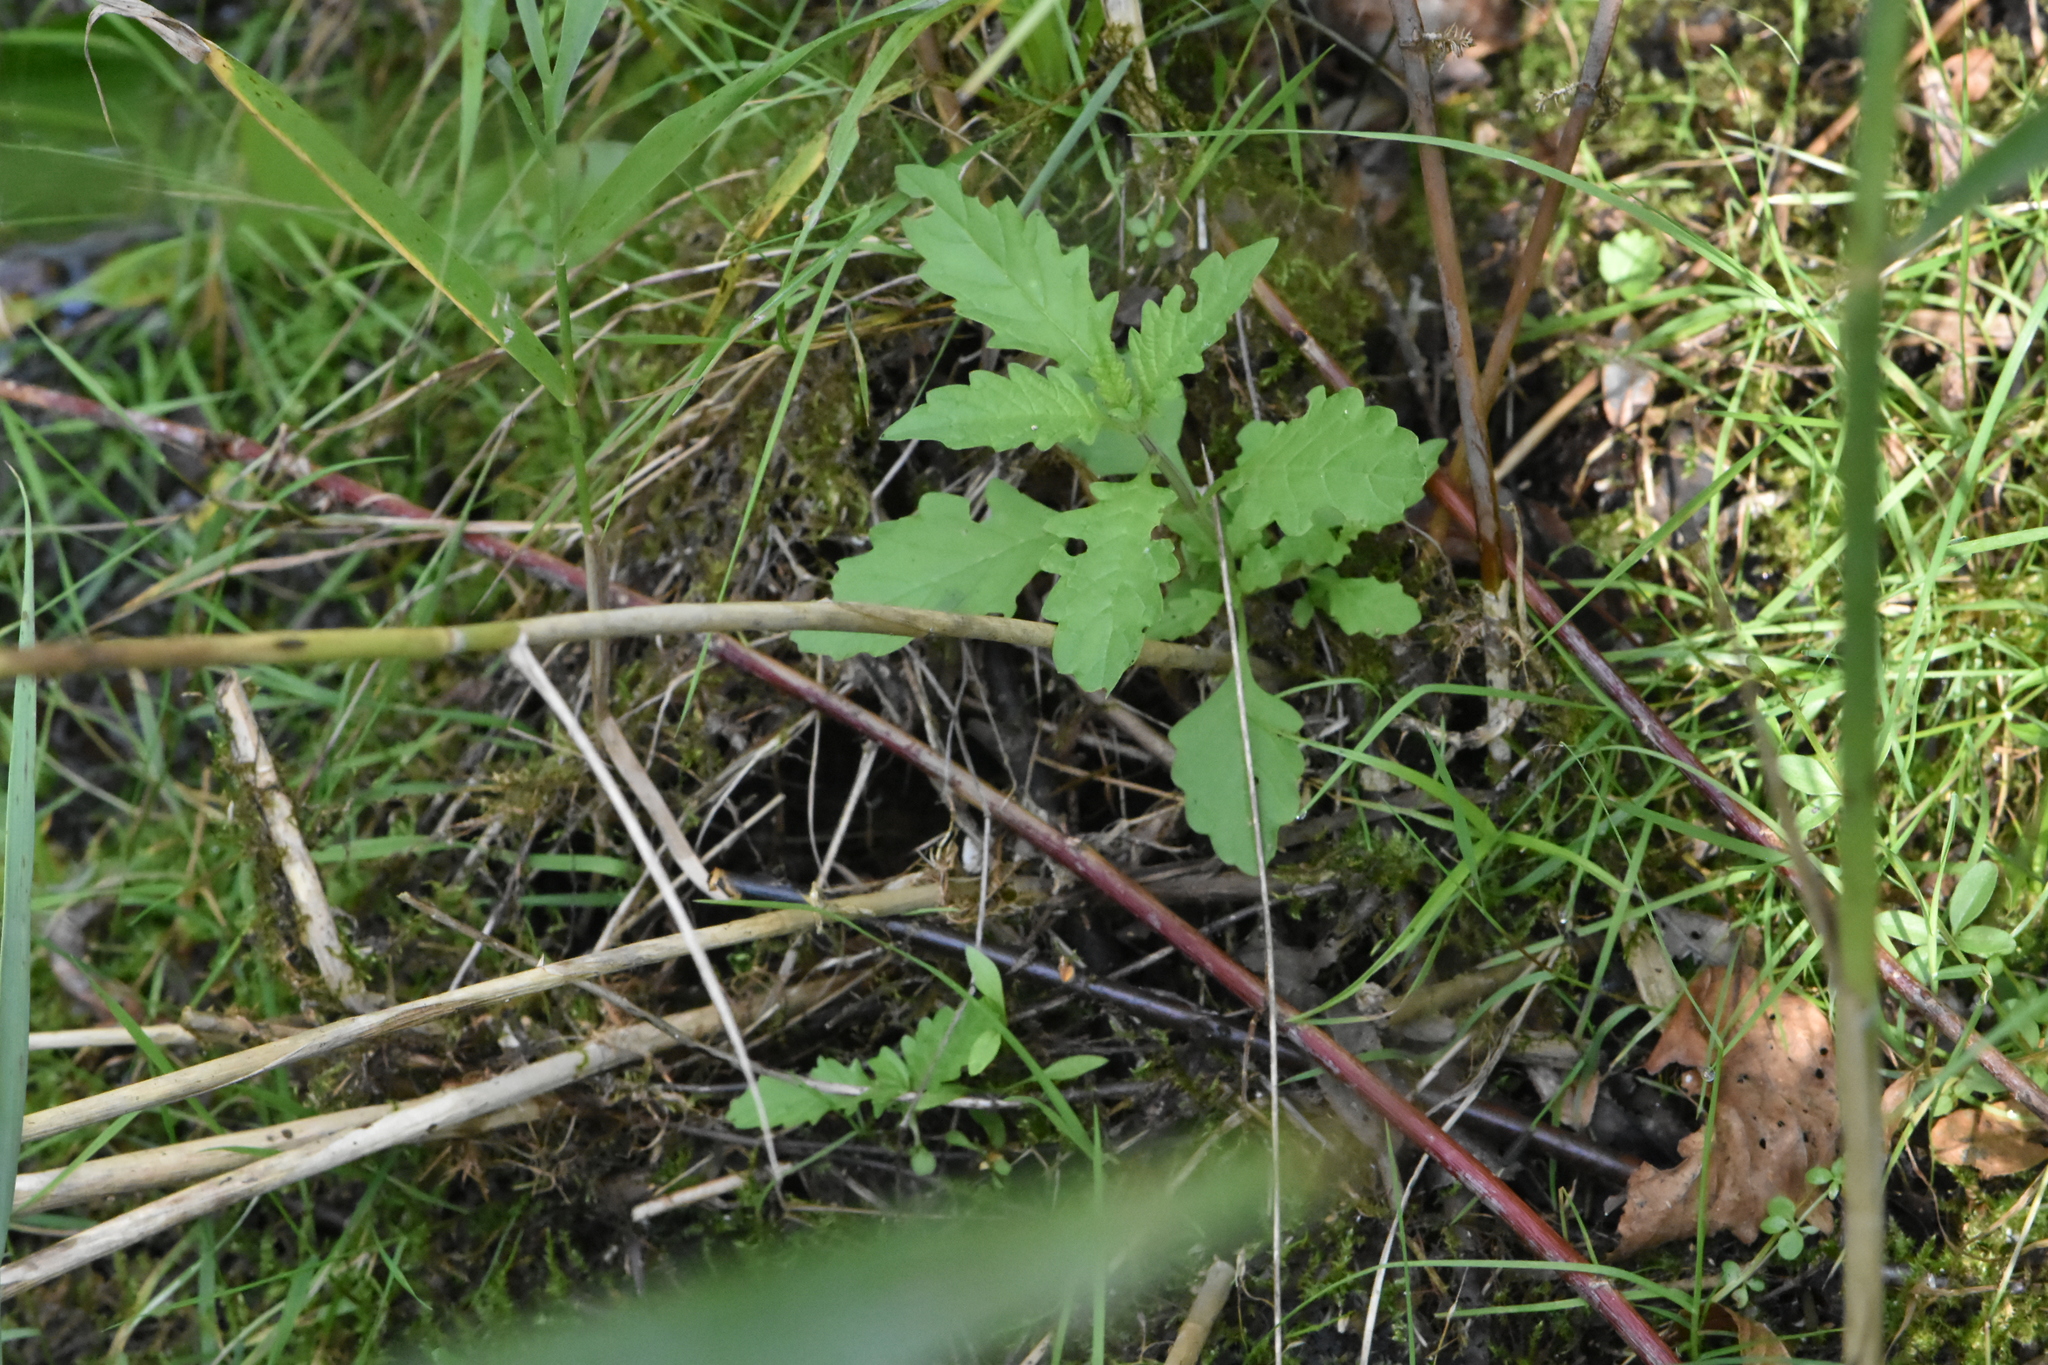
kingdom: Plantae
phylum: Tracheophyta
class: Magnoliopsida
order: Lamiales
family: Lamiaceae
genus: Lycopus
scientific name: Lycopus europaeus
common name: European bugleweed
